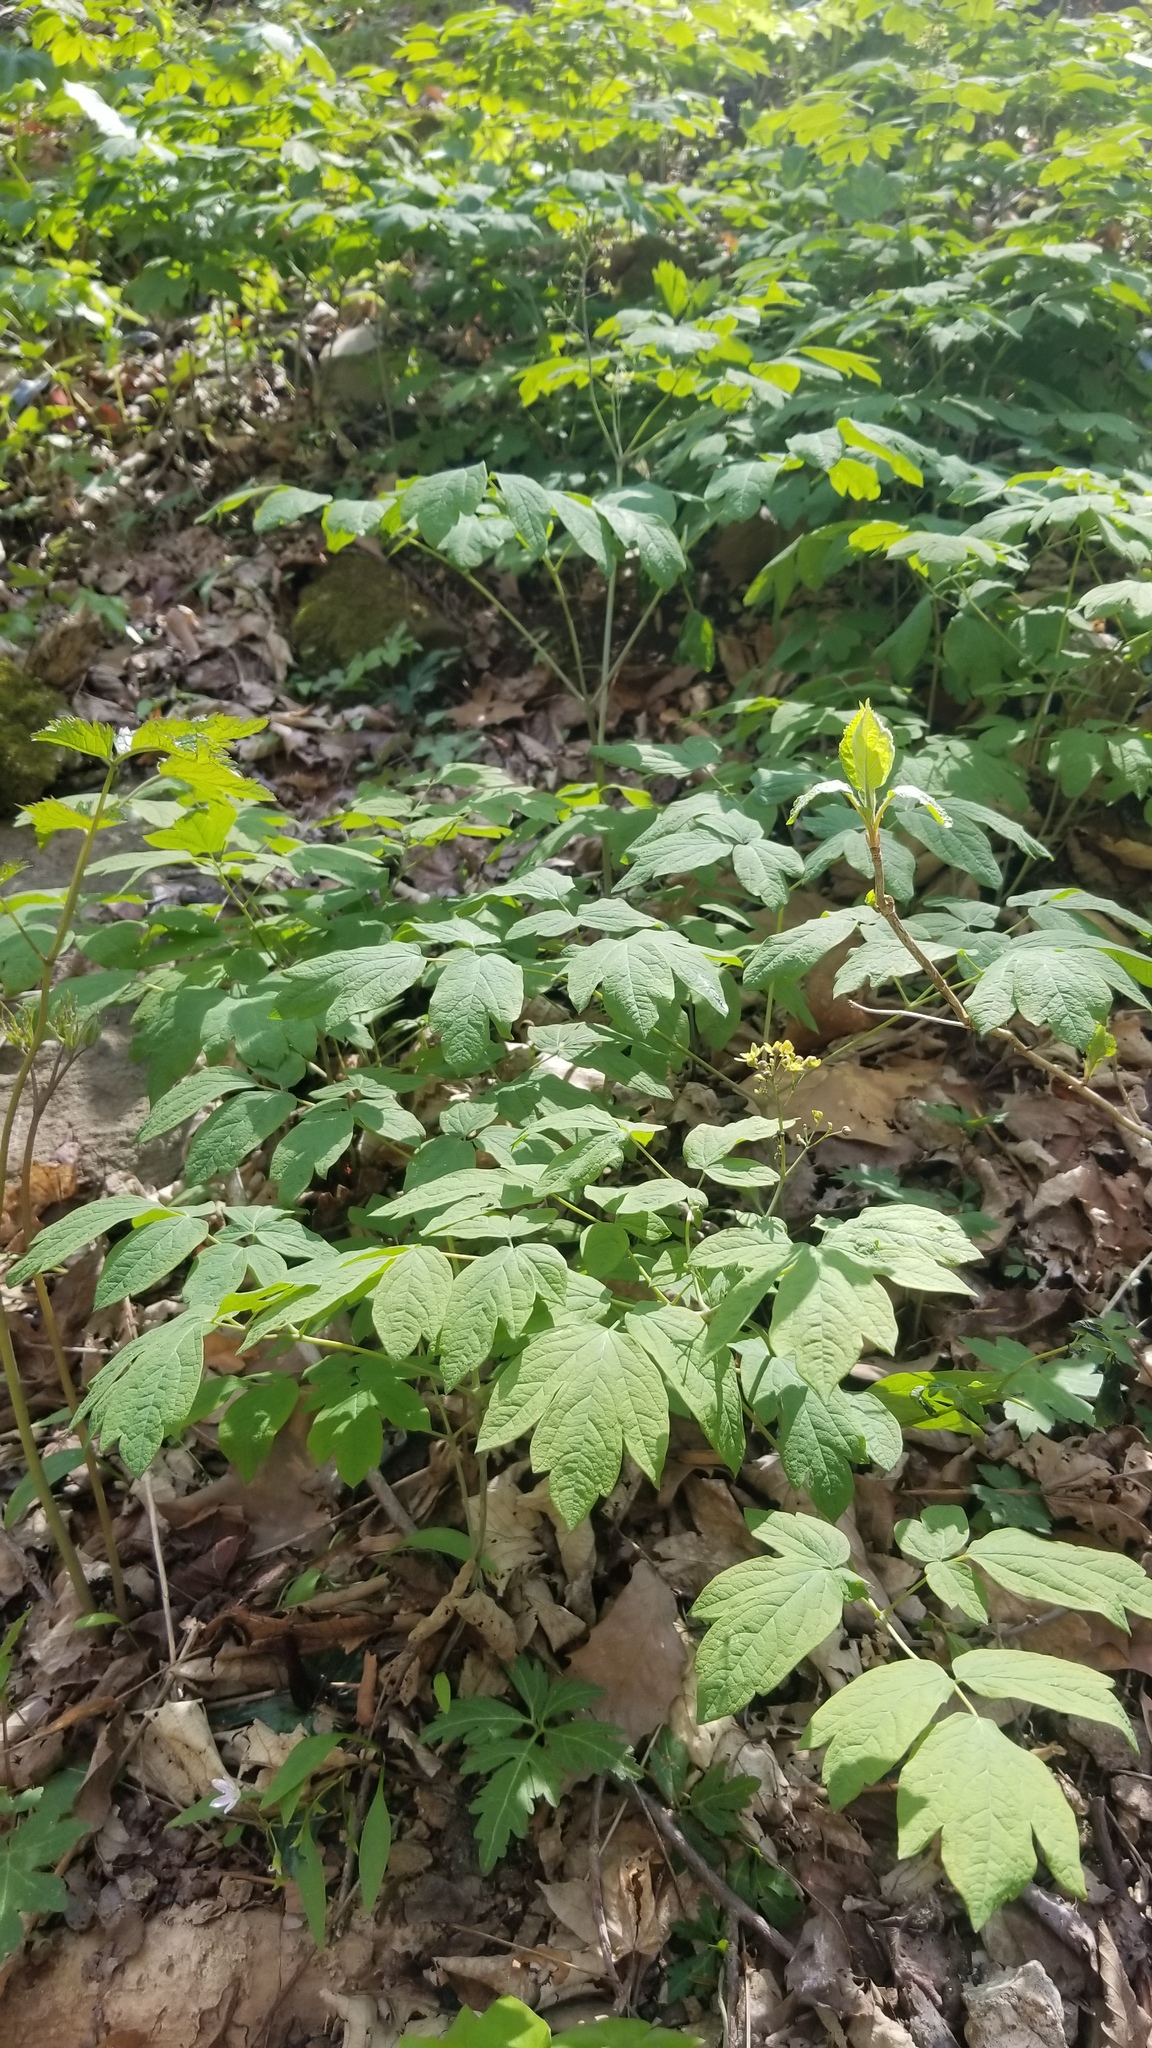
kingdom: Plantae
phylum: Tracheophyta
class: Magnoliopsida
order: Ranunculales
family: Berberidaceae
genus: Caulophyllum
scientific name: Caulophyllum thalictroides
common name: Blue cohosh
